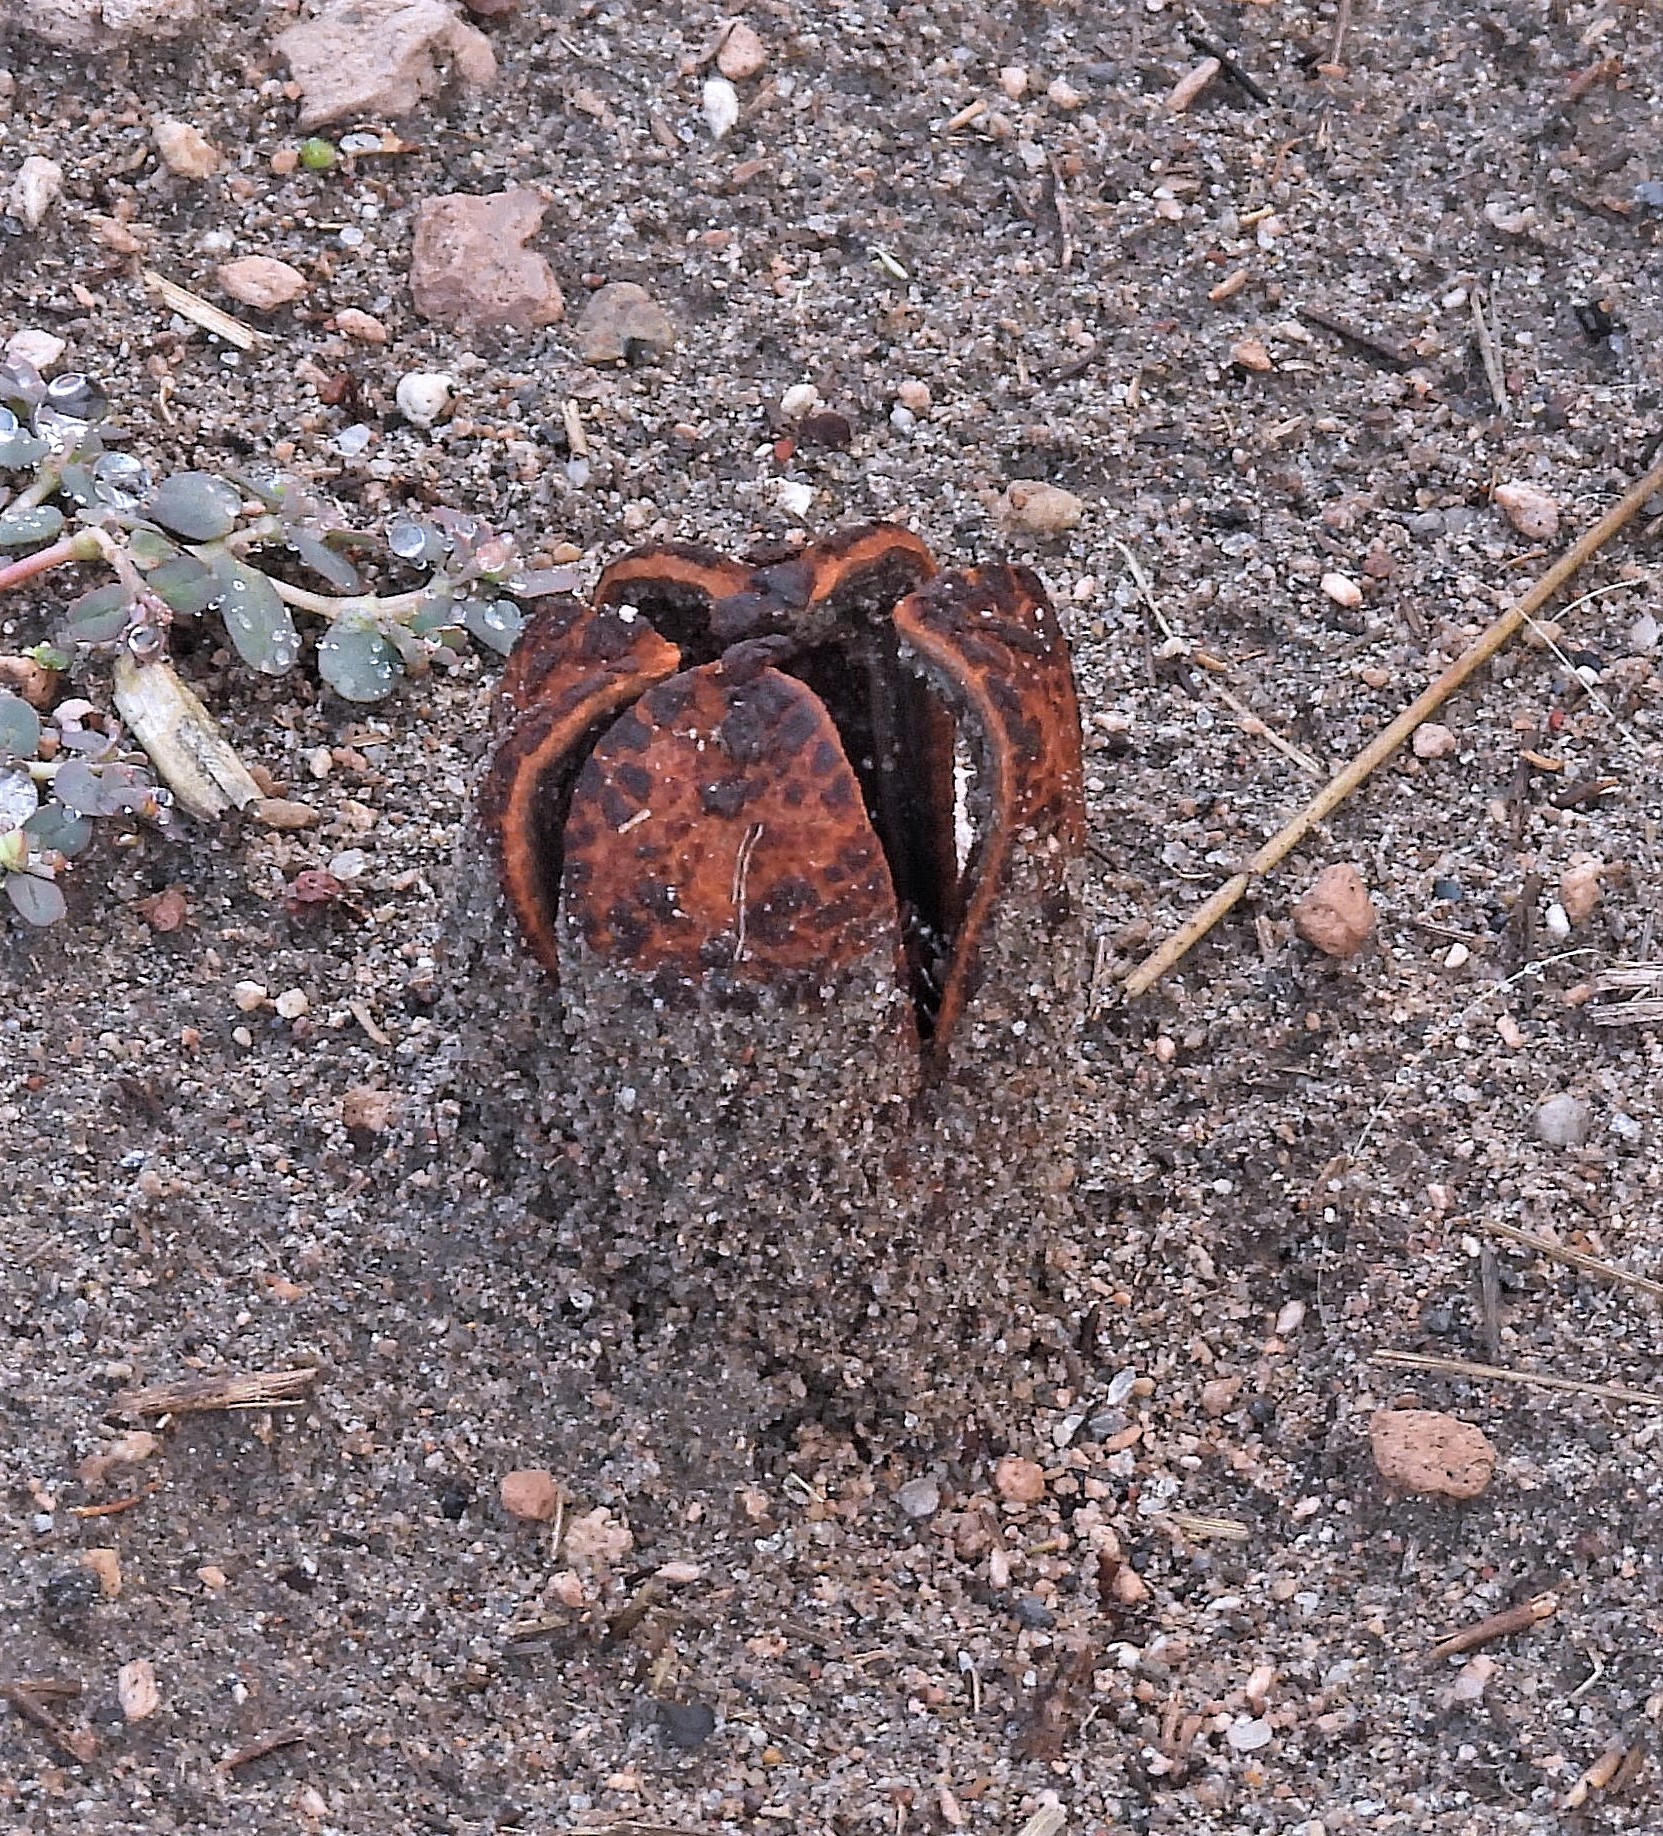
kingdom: Plantae
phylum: Tracheophyta
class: Magnoliopsida
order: Piperales
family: Hydnoraceae
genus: Prosopanche
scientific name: Prosopanche americana
